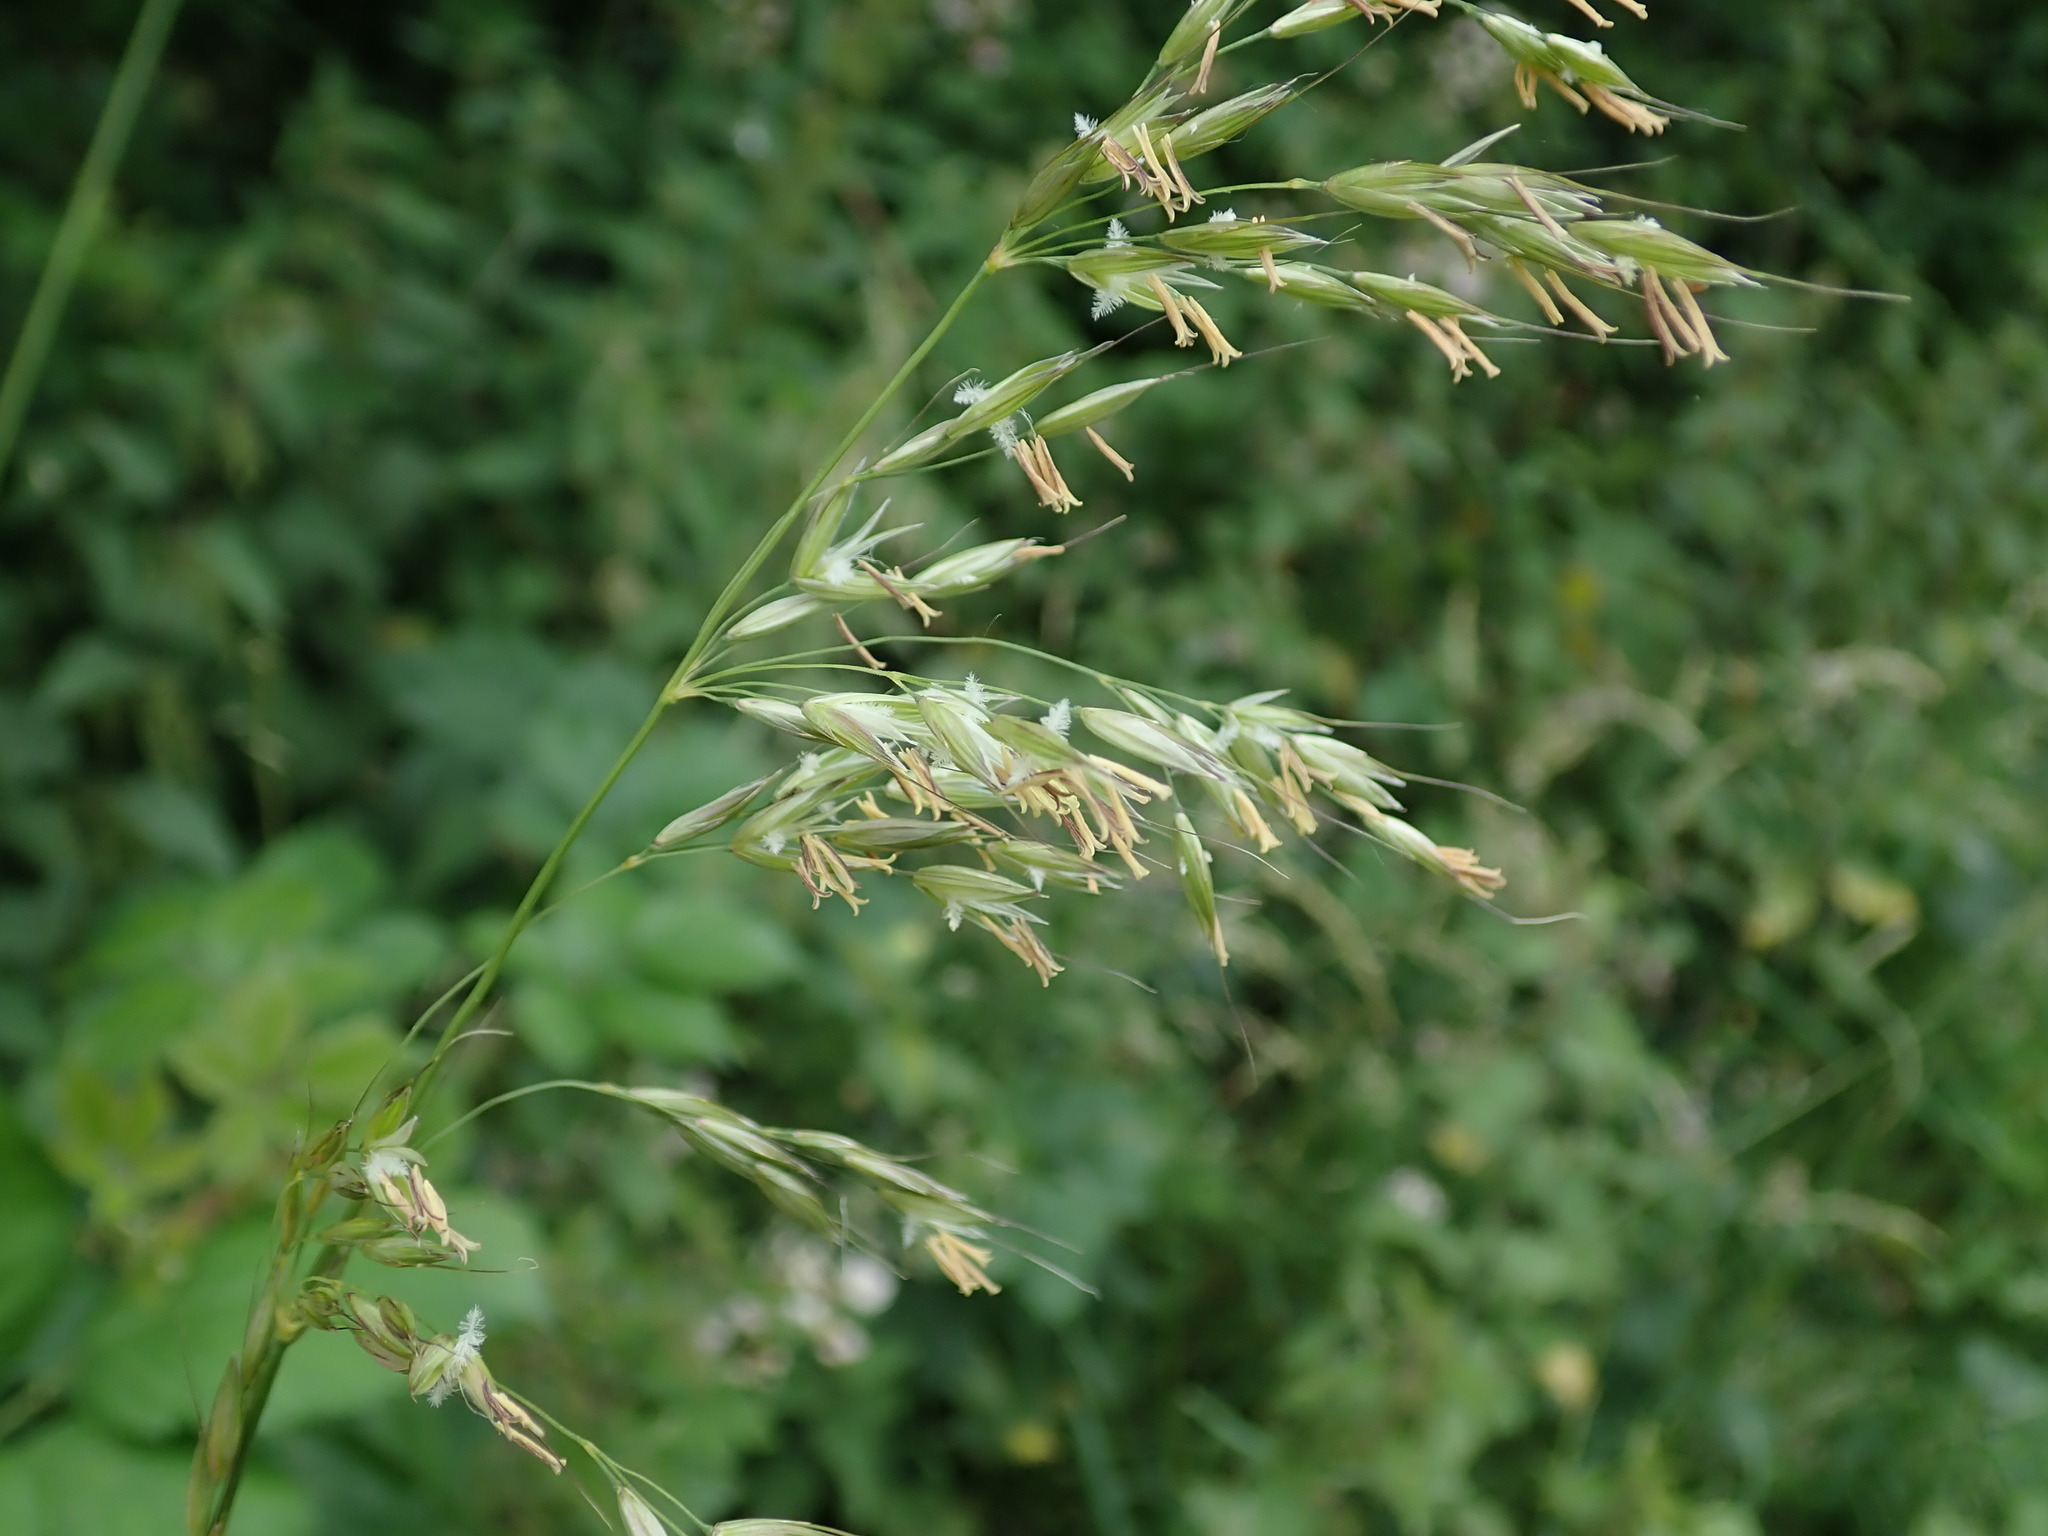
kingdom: Plantae
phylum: Tracheophyta
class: Liliopsida
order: Poales
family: Poaceae
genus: Arrhenatherum
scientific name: Arrhenatherum elatius
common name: Tall oatgrass
